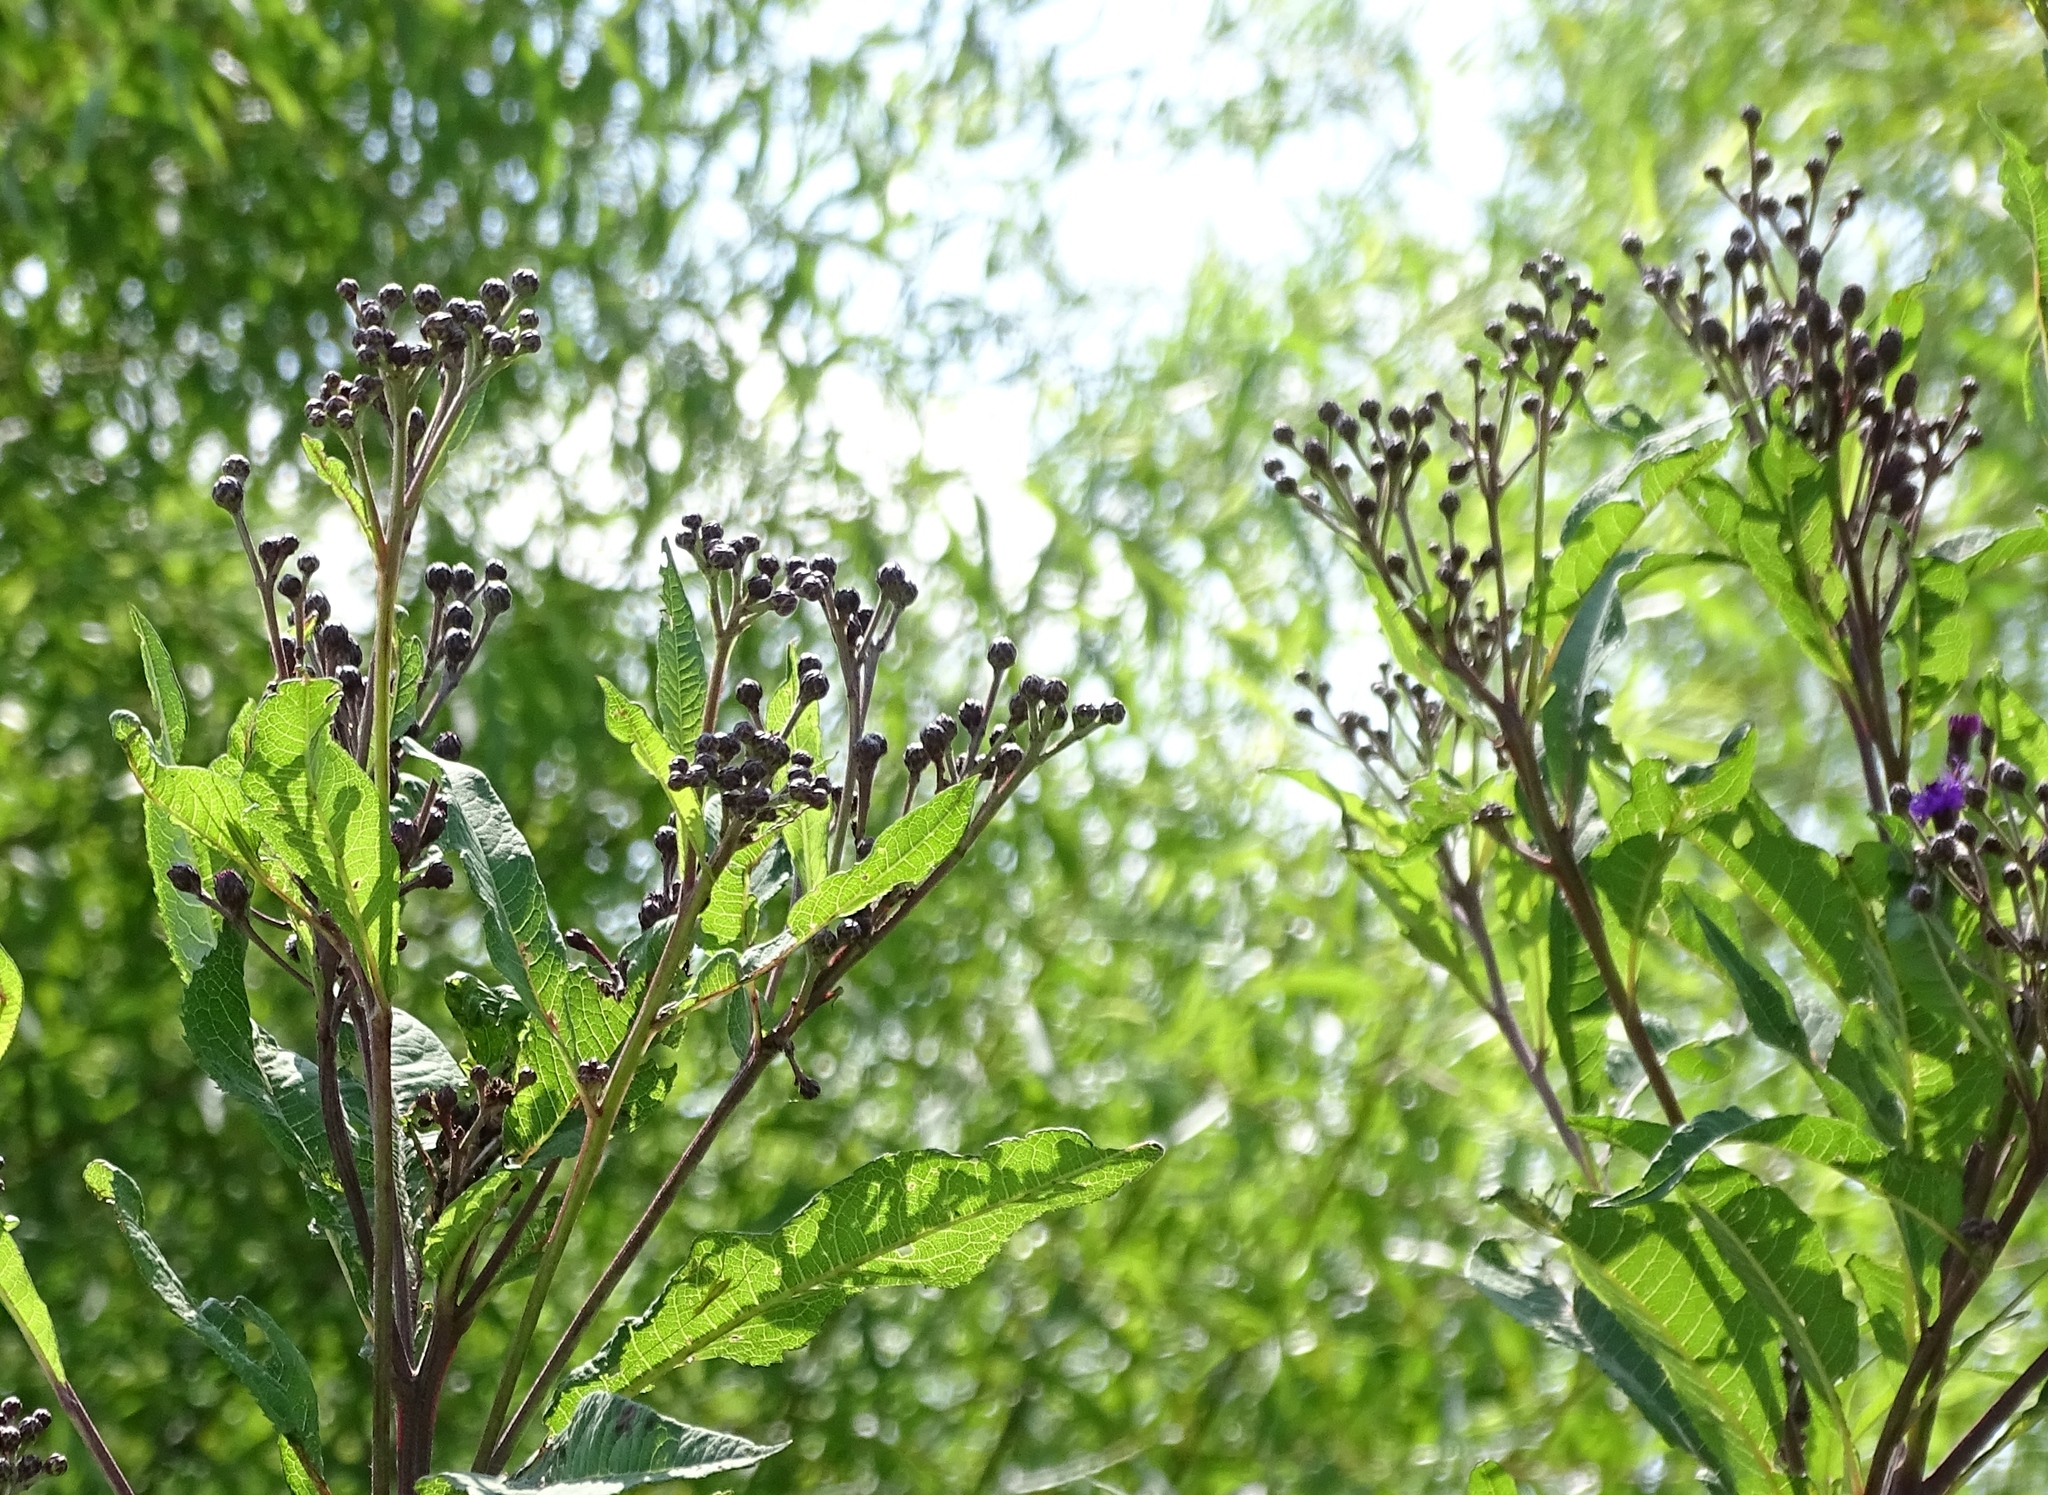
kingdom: Plantae
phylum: Tracheophyta
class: Magnoliopsida
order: Asterales
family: Asteraceae
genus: Vernonia
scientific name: Vernonia gigantea
